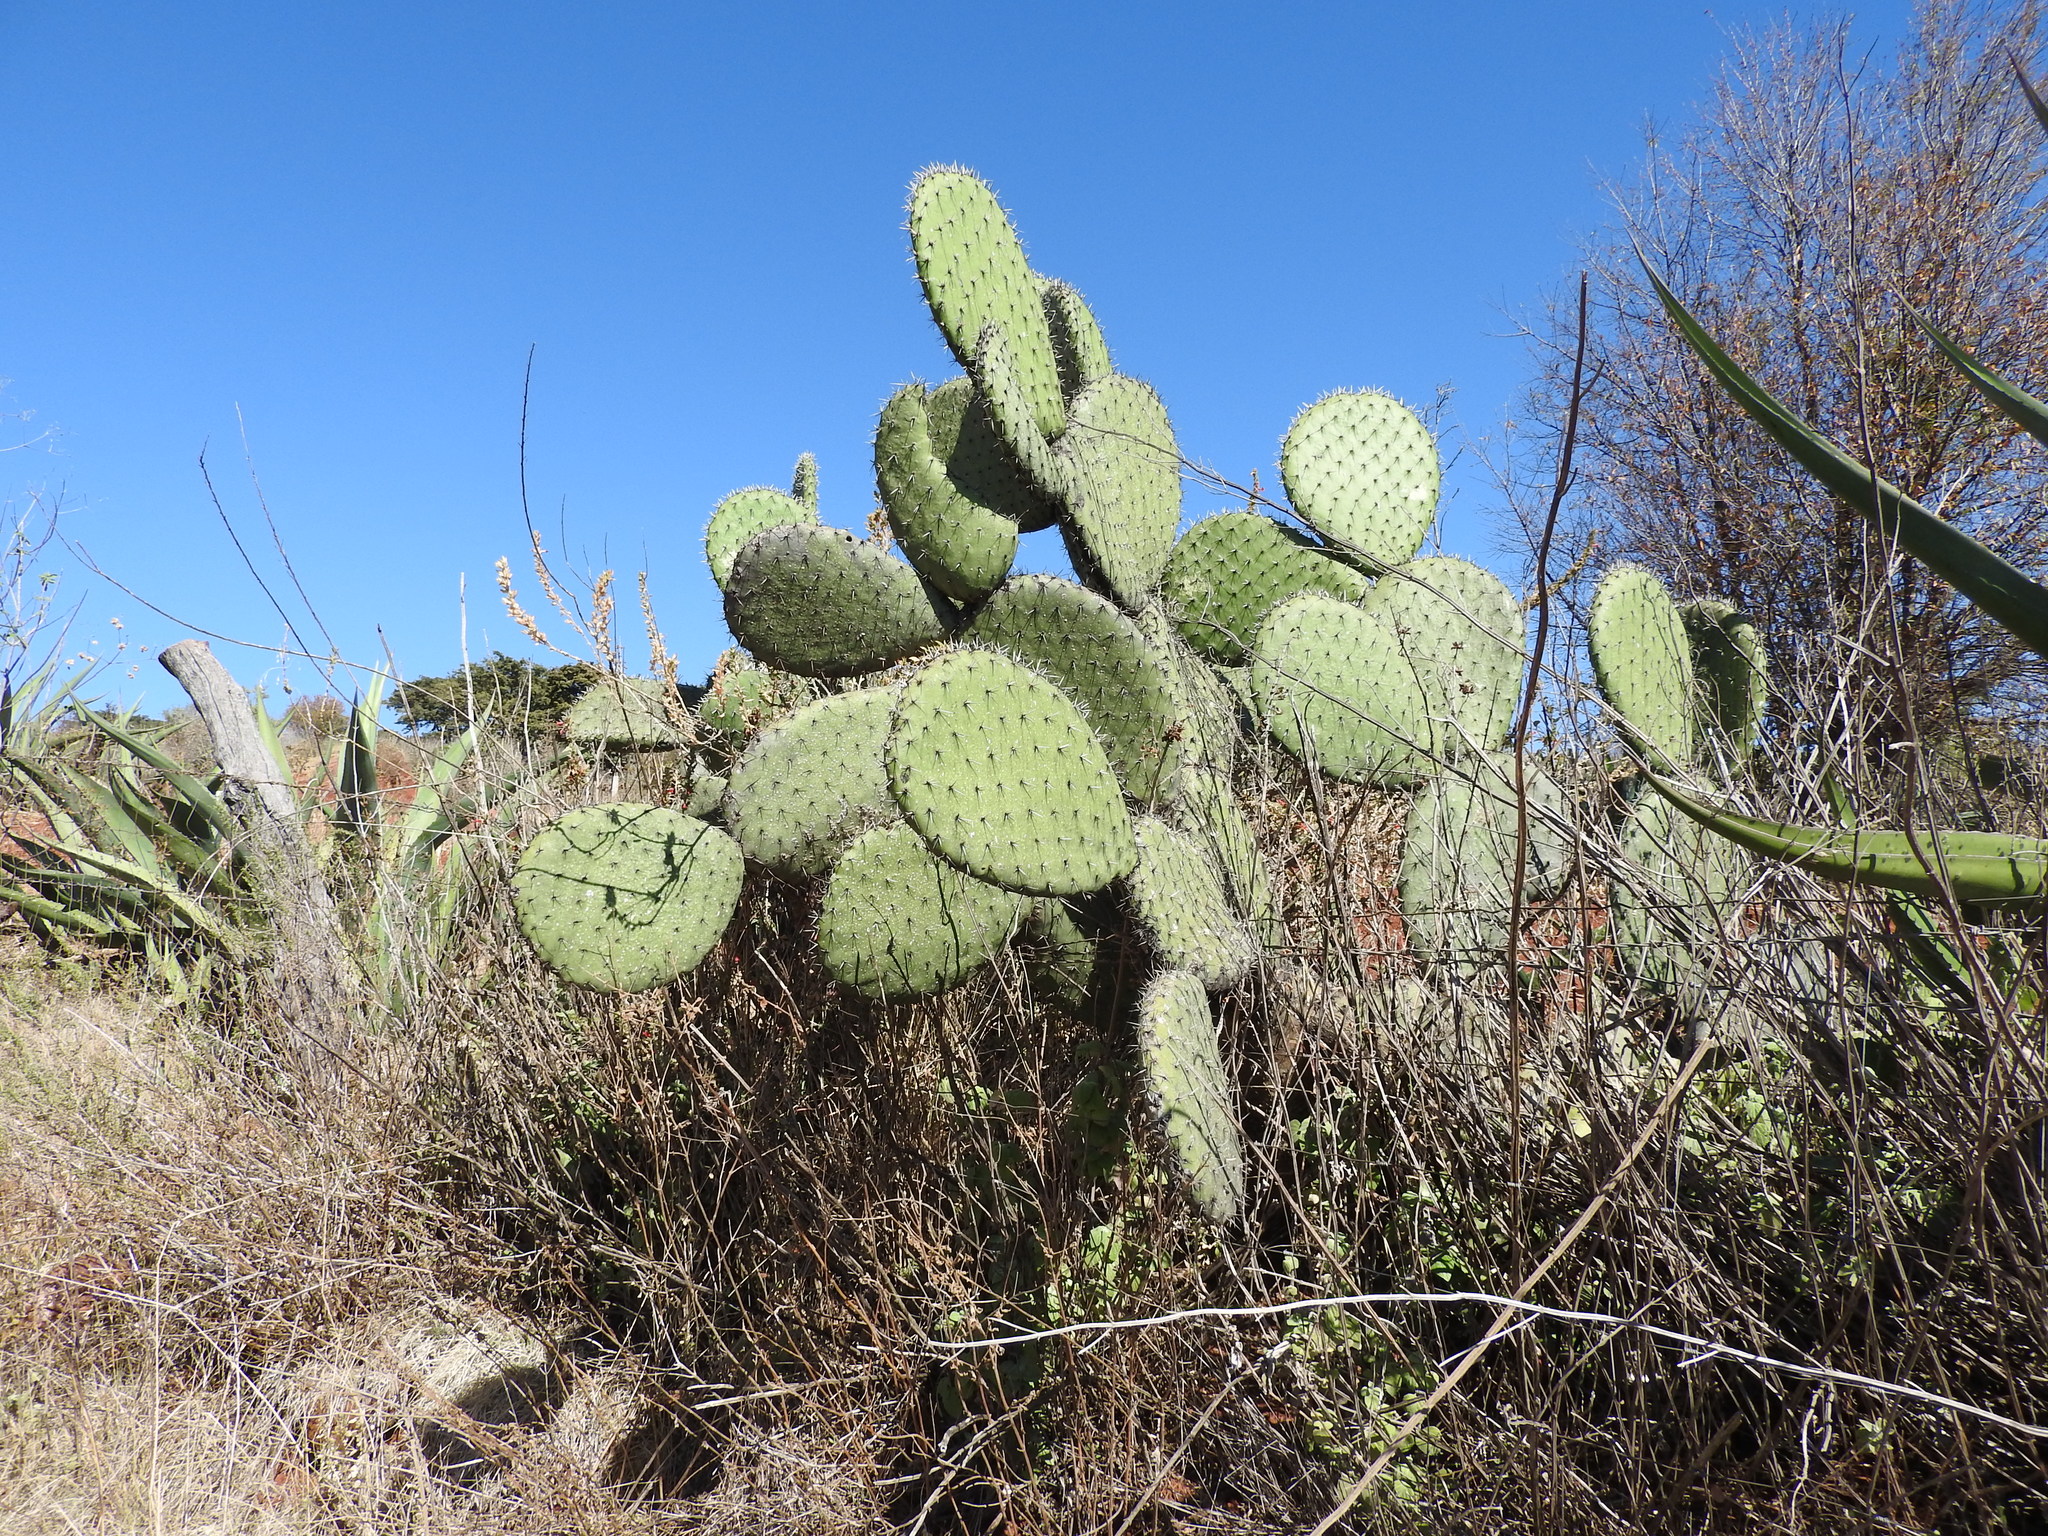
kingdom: Plantae
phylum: Tracheophyta
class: Magnoliopsida
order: Caryophyllales
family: Cactaceae
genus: Opuntia
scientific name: Opuntia streptacantha
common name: Gracemere-pear
